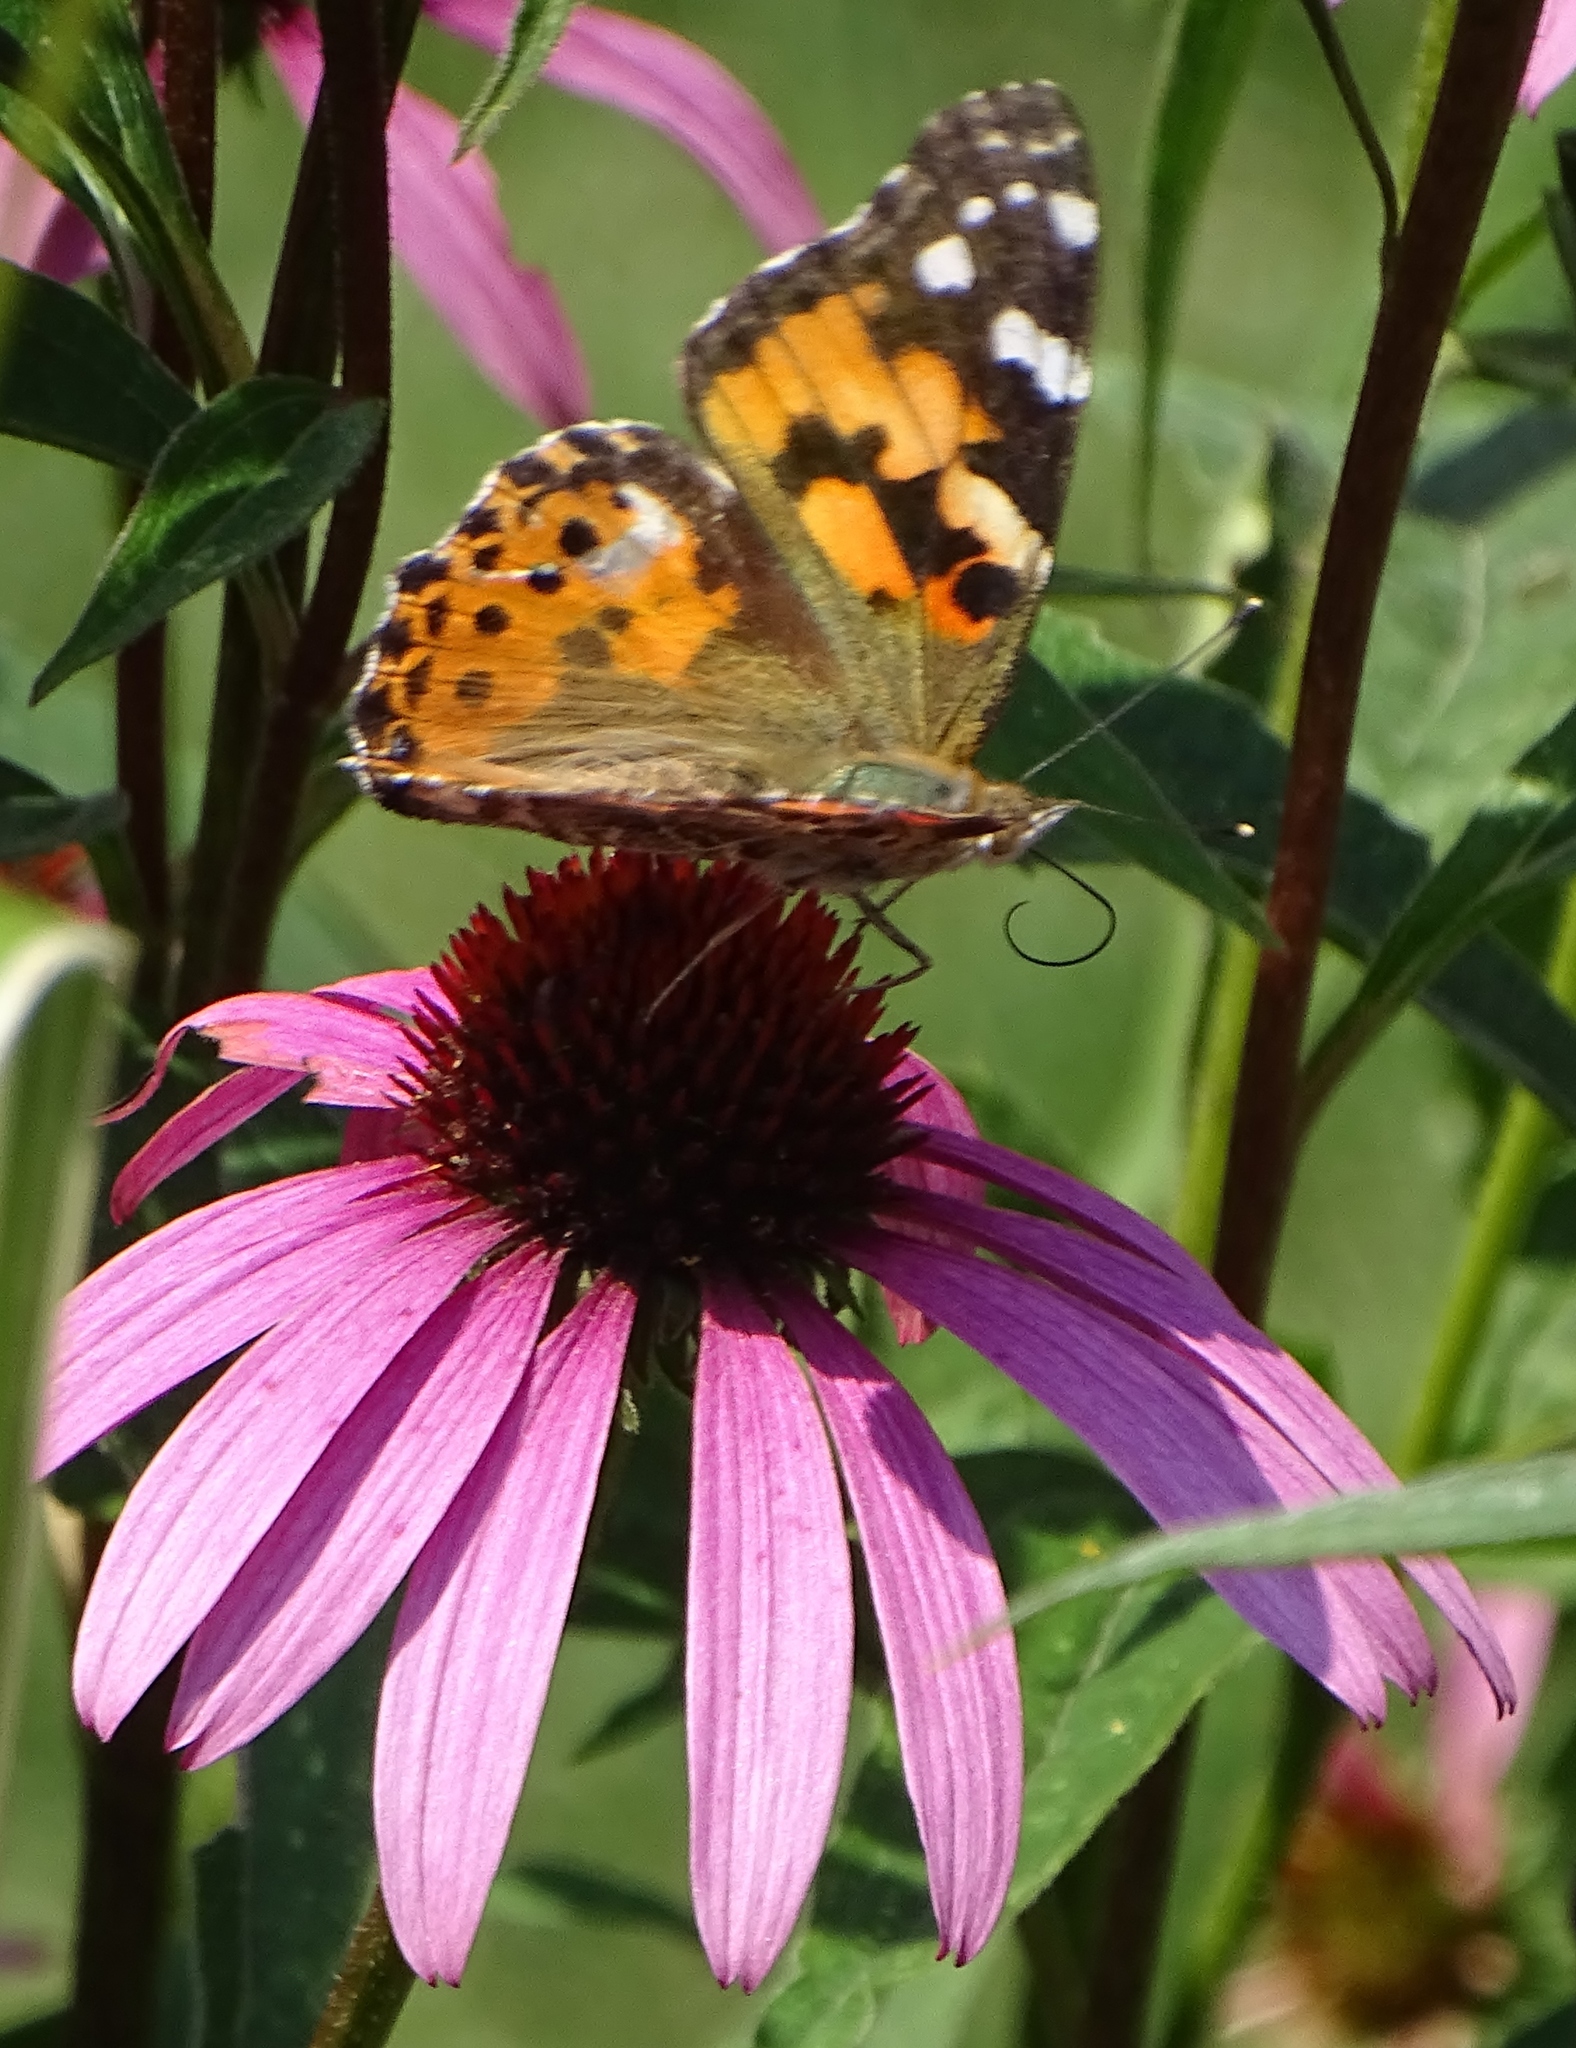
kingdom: Animalia
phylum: Arthropoda
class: Insecta
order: Lepidoptera
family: Nymphalidae
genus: Vanessa
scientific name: Vanessa cardui
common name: Painted lady
